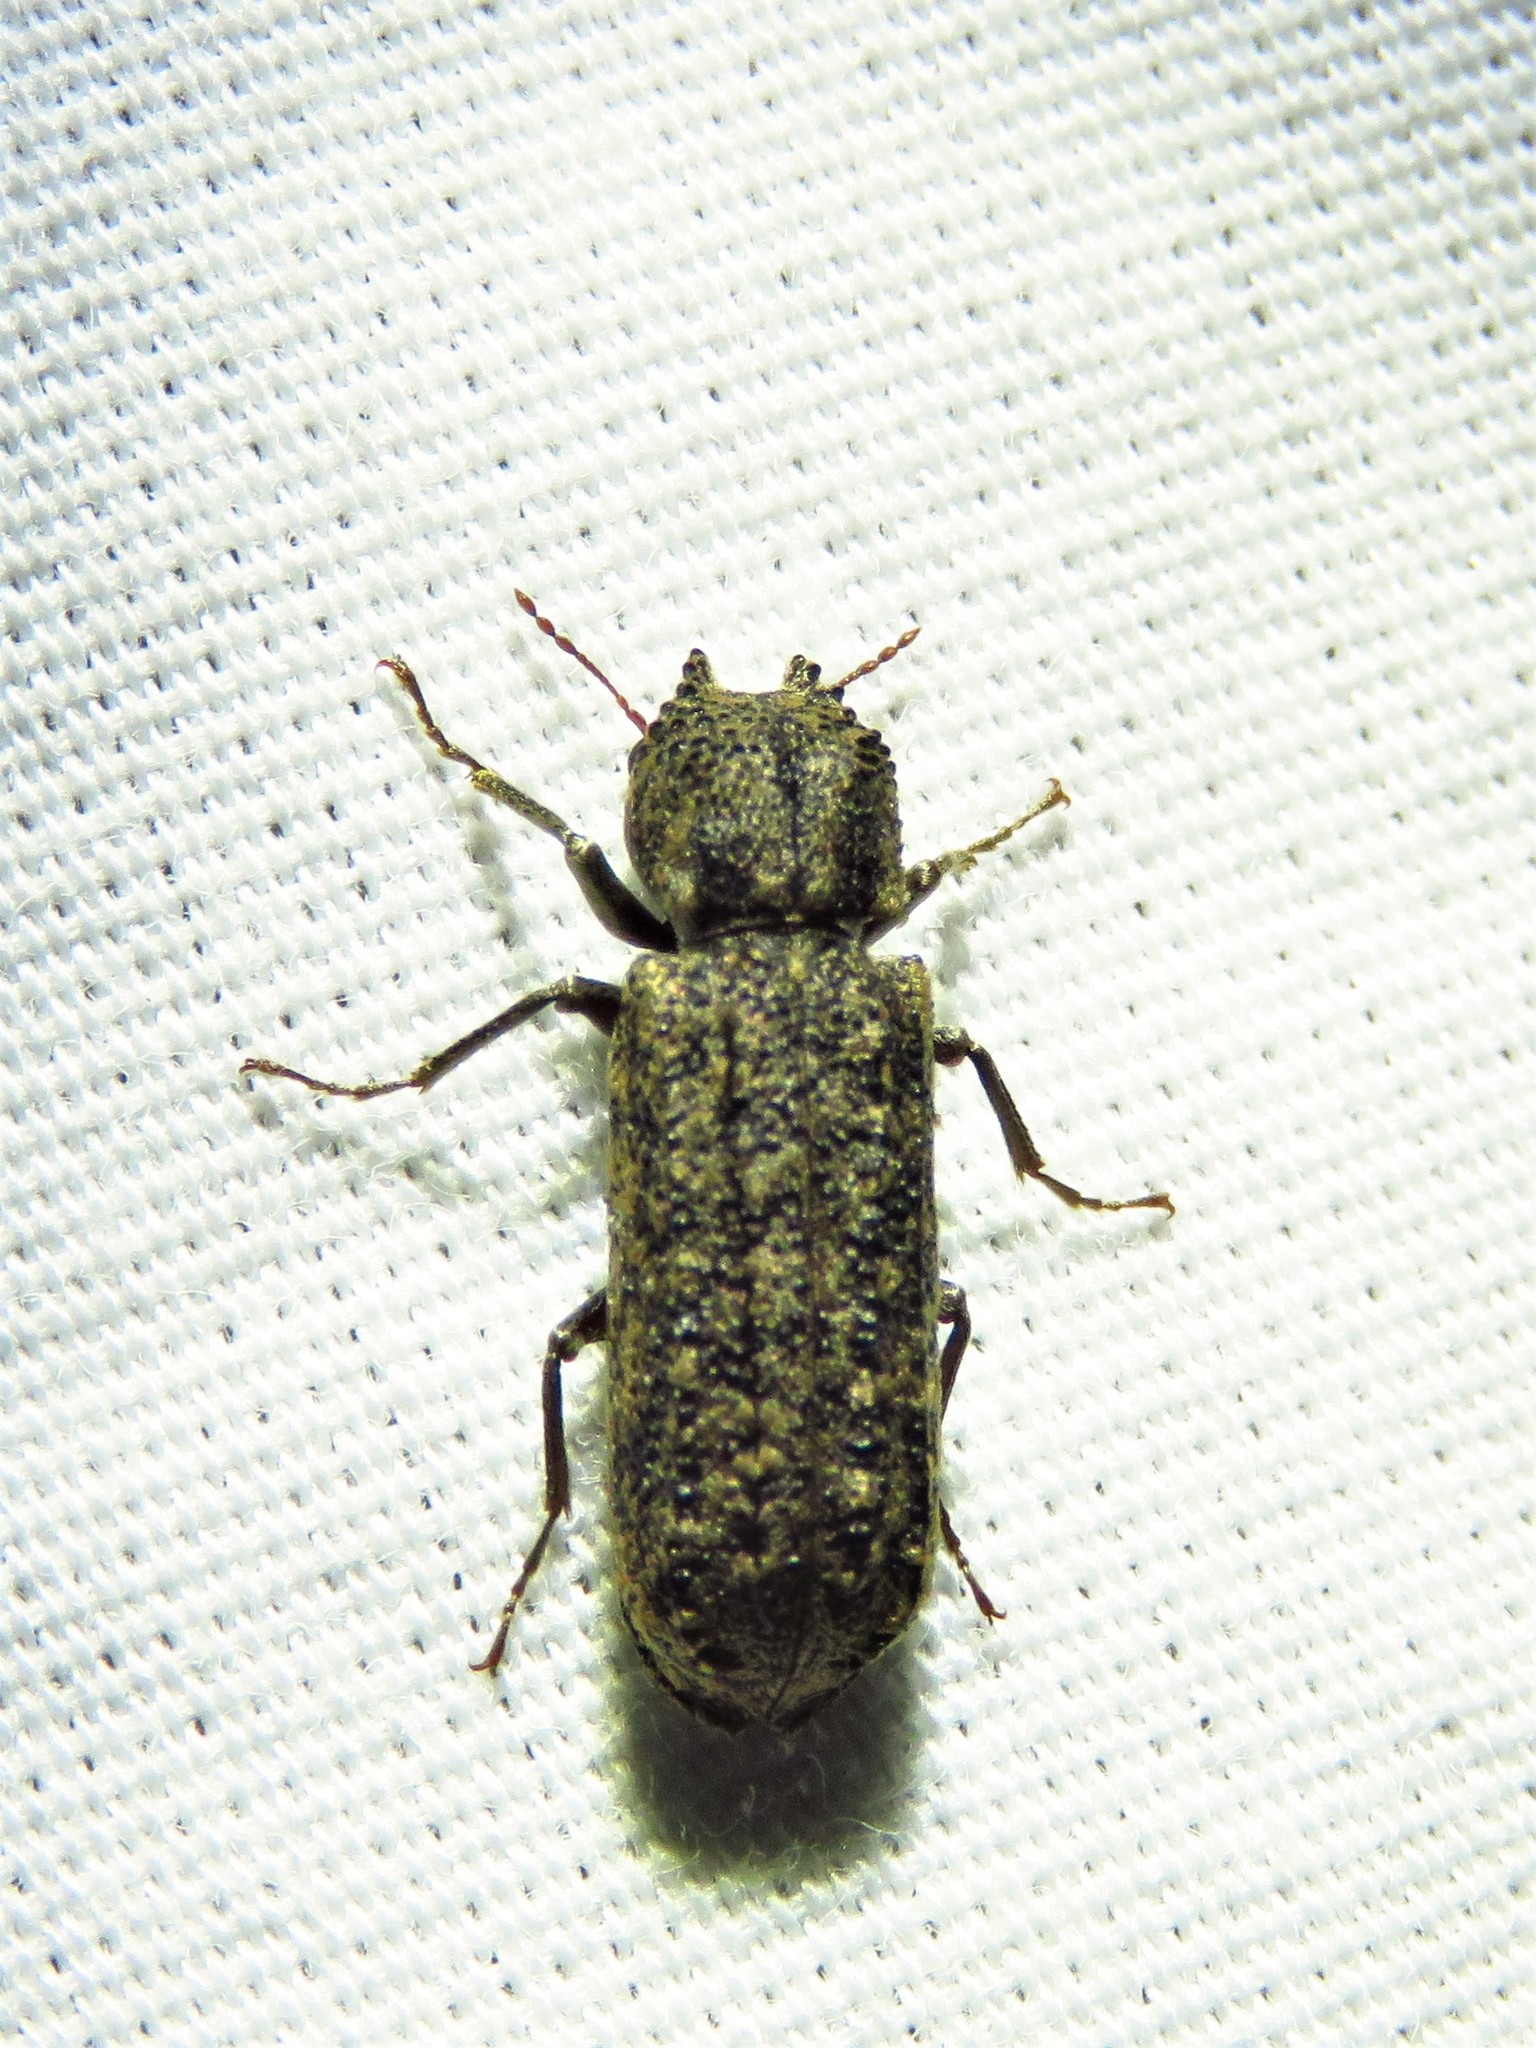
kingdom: Animalia
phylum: Arthropoda
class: Insecta
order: Coleoptera
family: Bostrichidae
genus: Lichenophanes
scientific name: Lichenophanes bicornis
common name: Two-horned powder-post beetle
